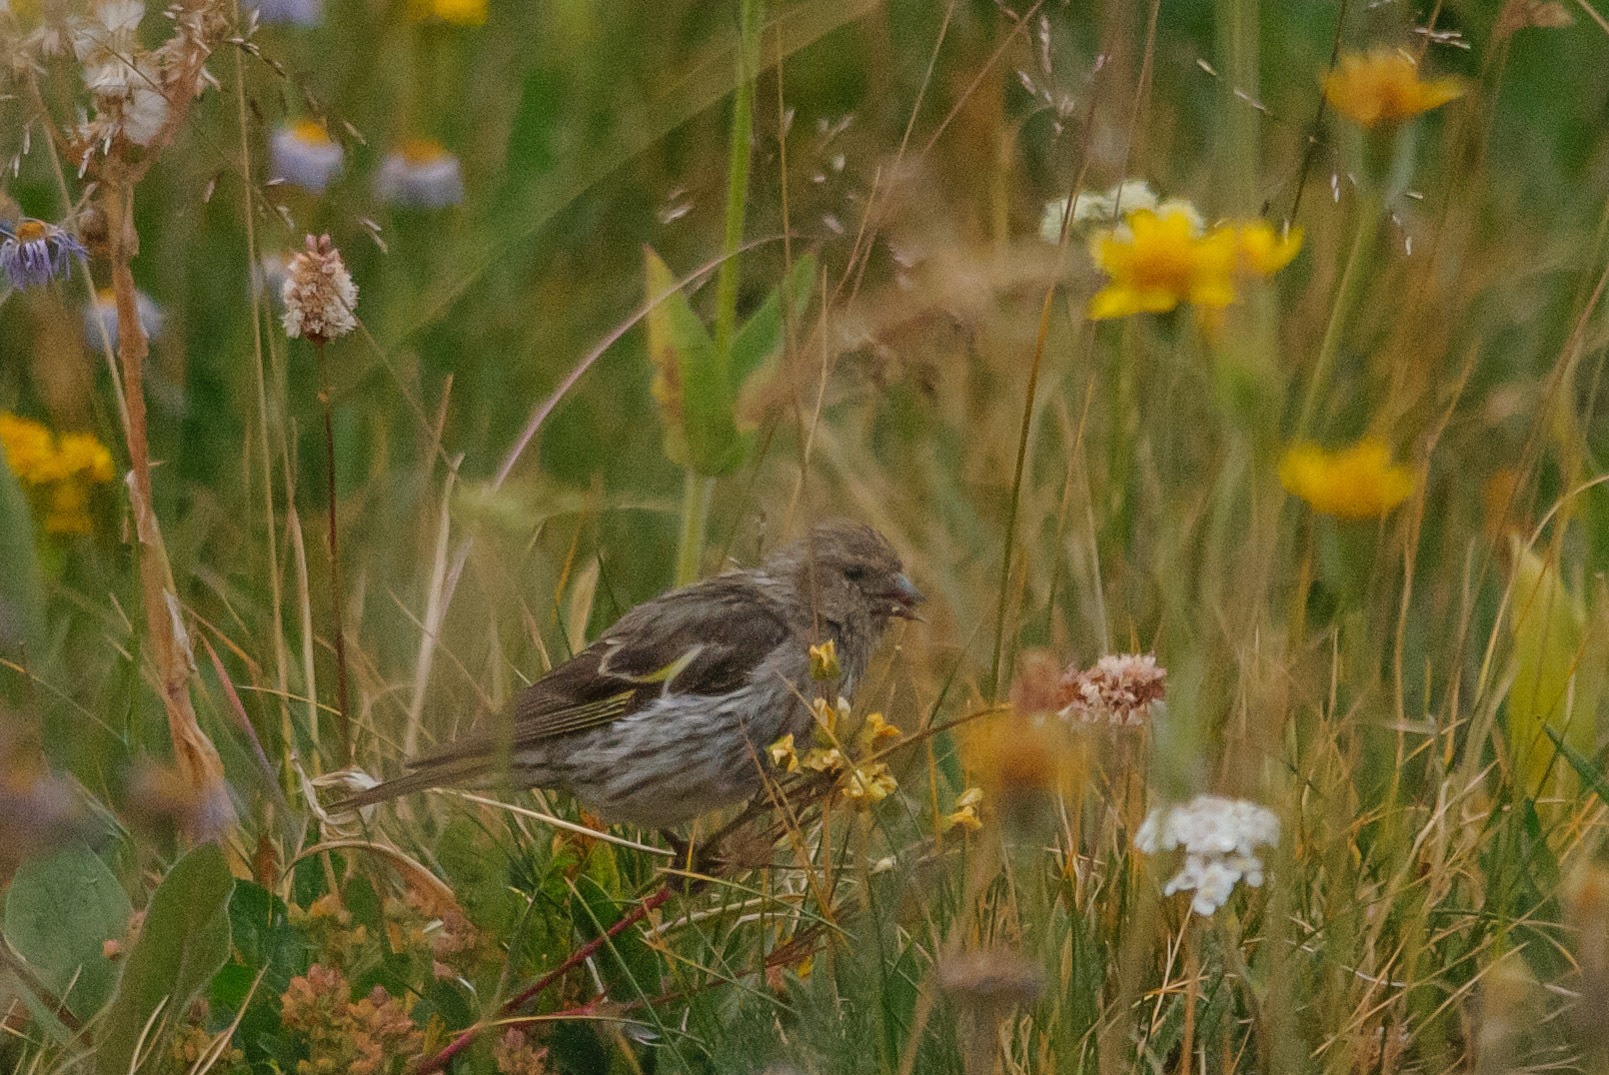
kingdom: Animalia
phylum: Chordata
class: Aves
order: Passeriformes
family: Fringillidae
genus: Spinus
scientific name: Spinus pinus
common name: Pine siskin
